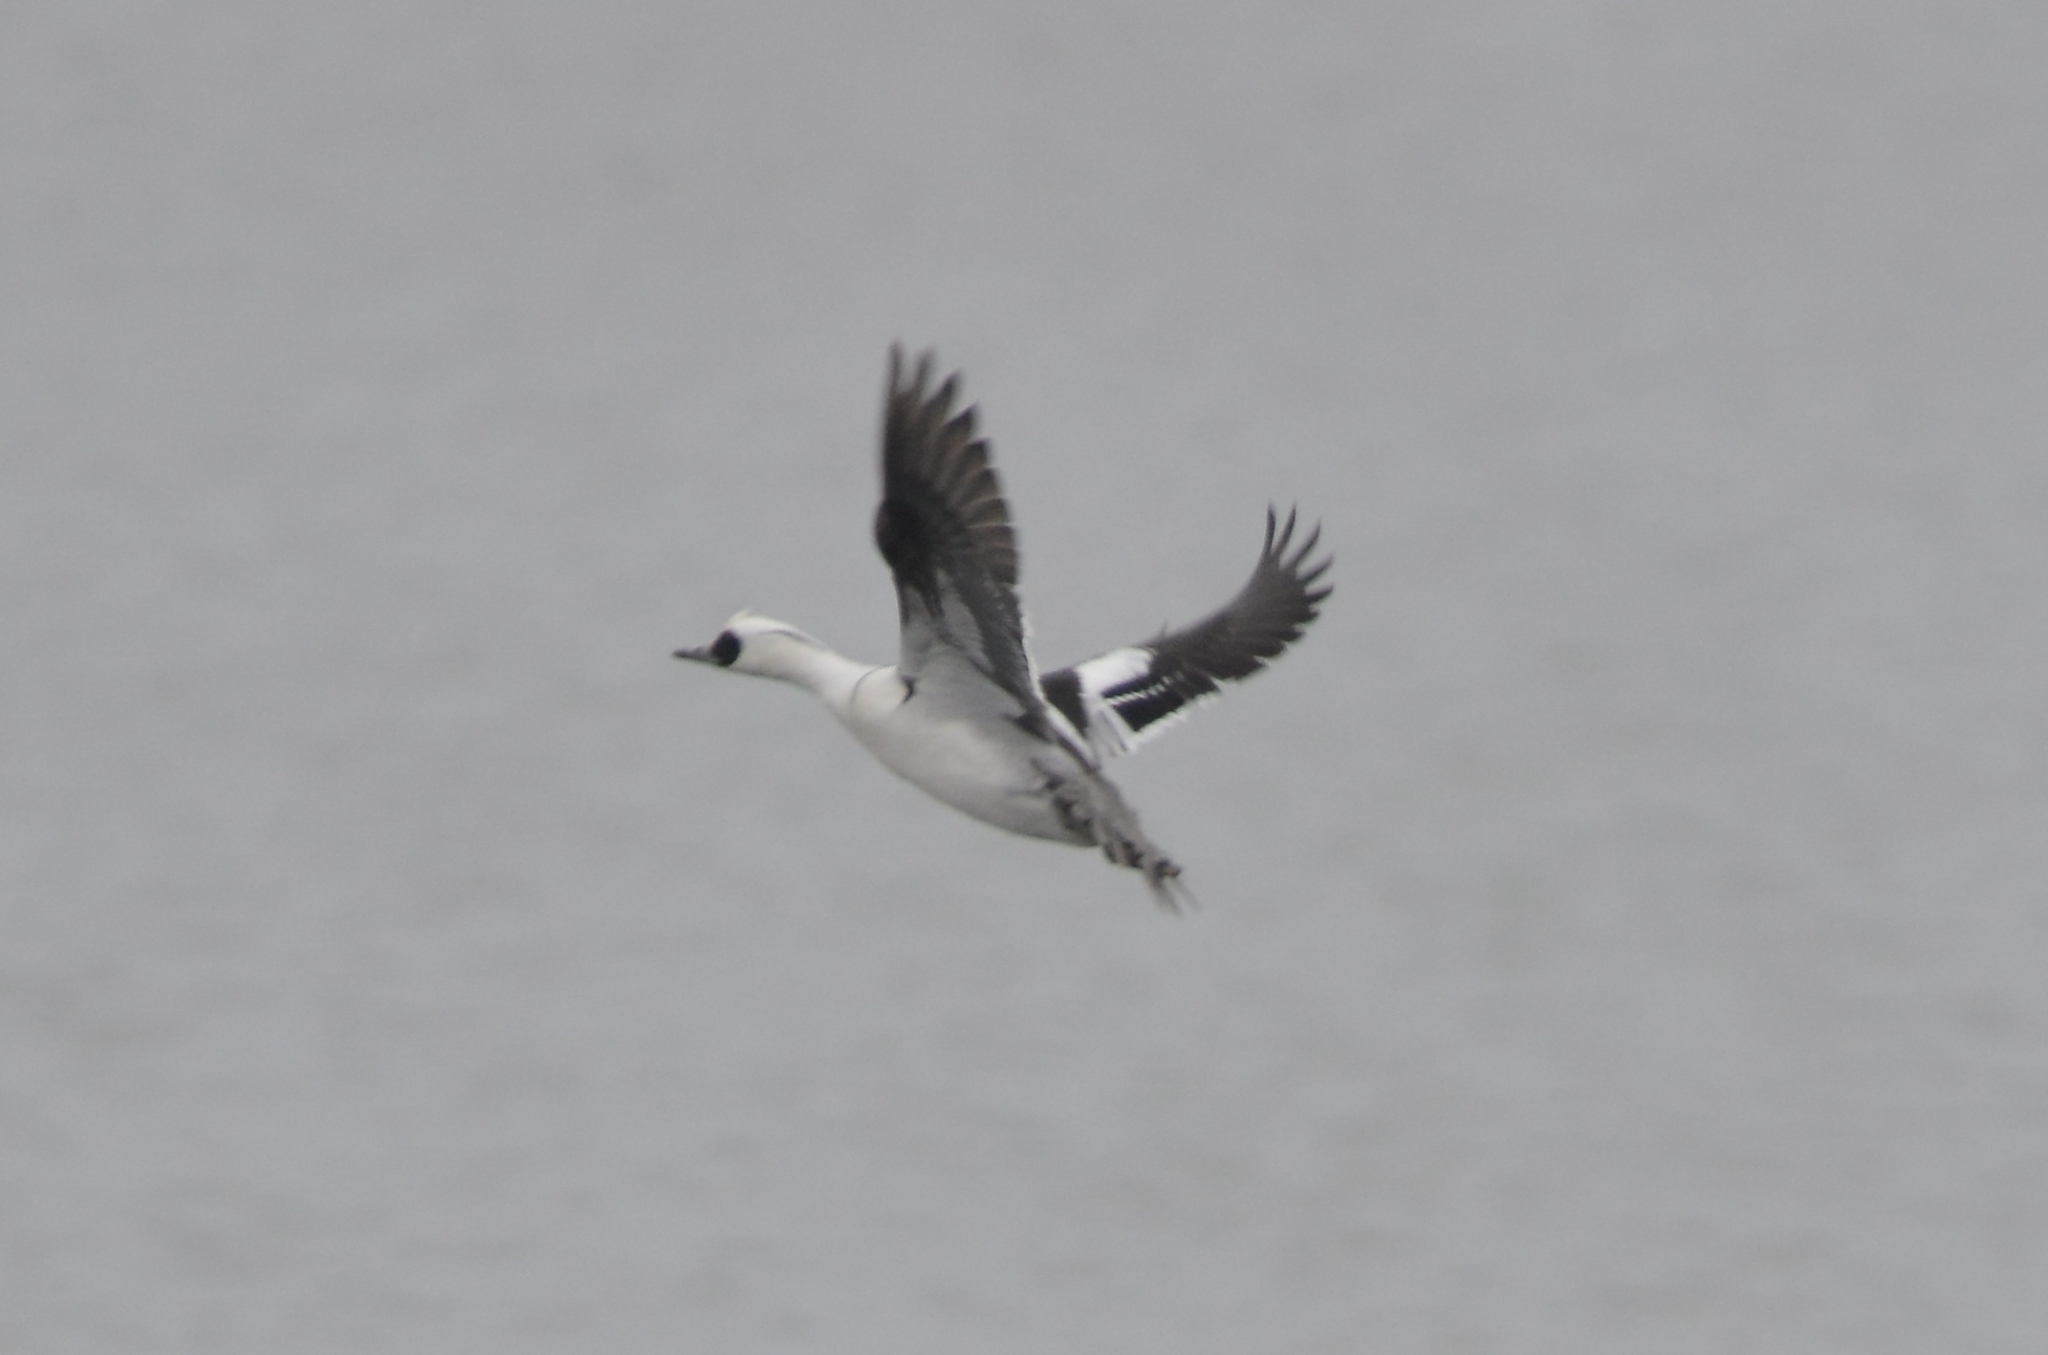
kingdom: Animalia
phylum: Chordata
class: Aves
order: Anseriformes
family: Anatidae
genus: Mergellus
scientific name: Mergellus albellus
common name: Smew
